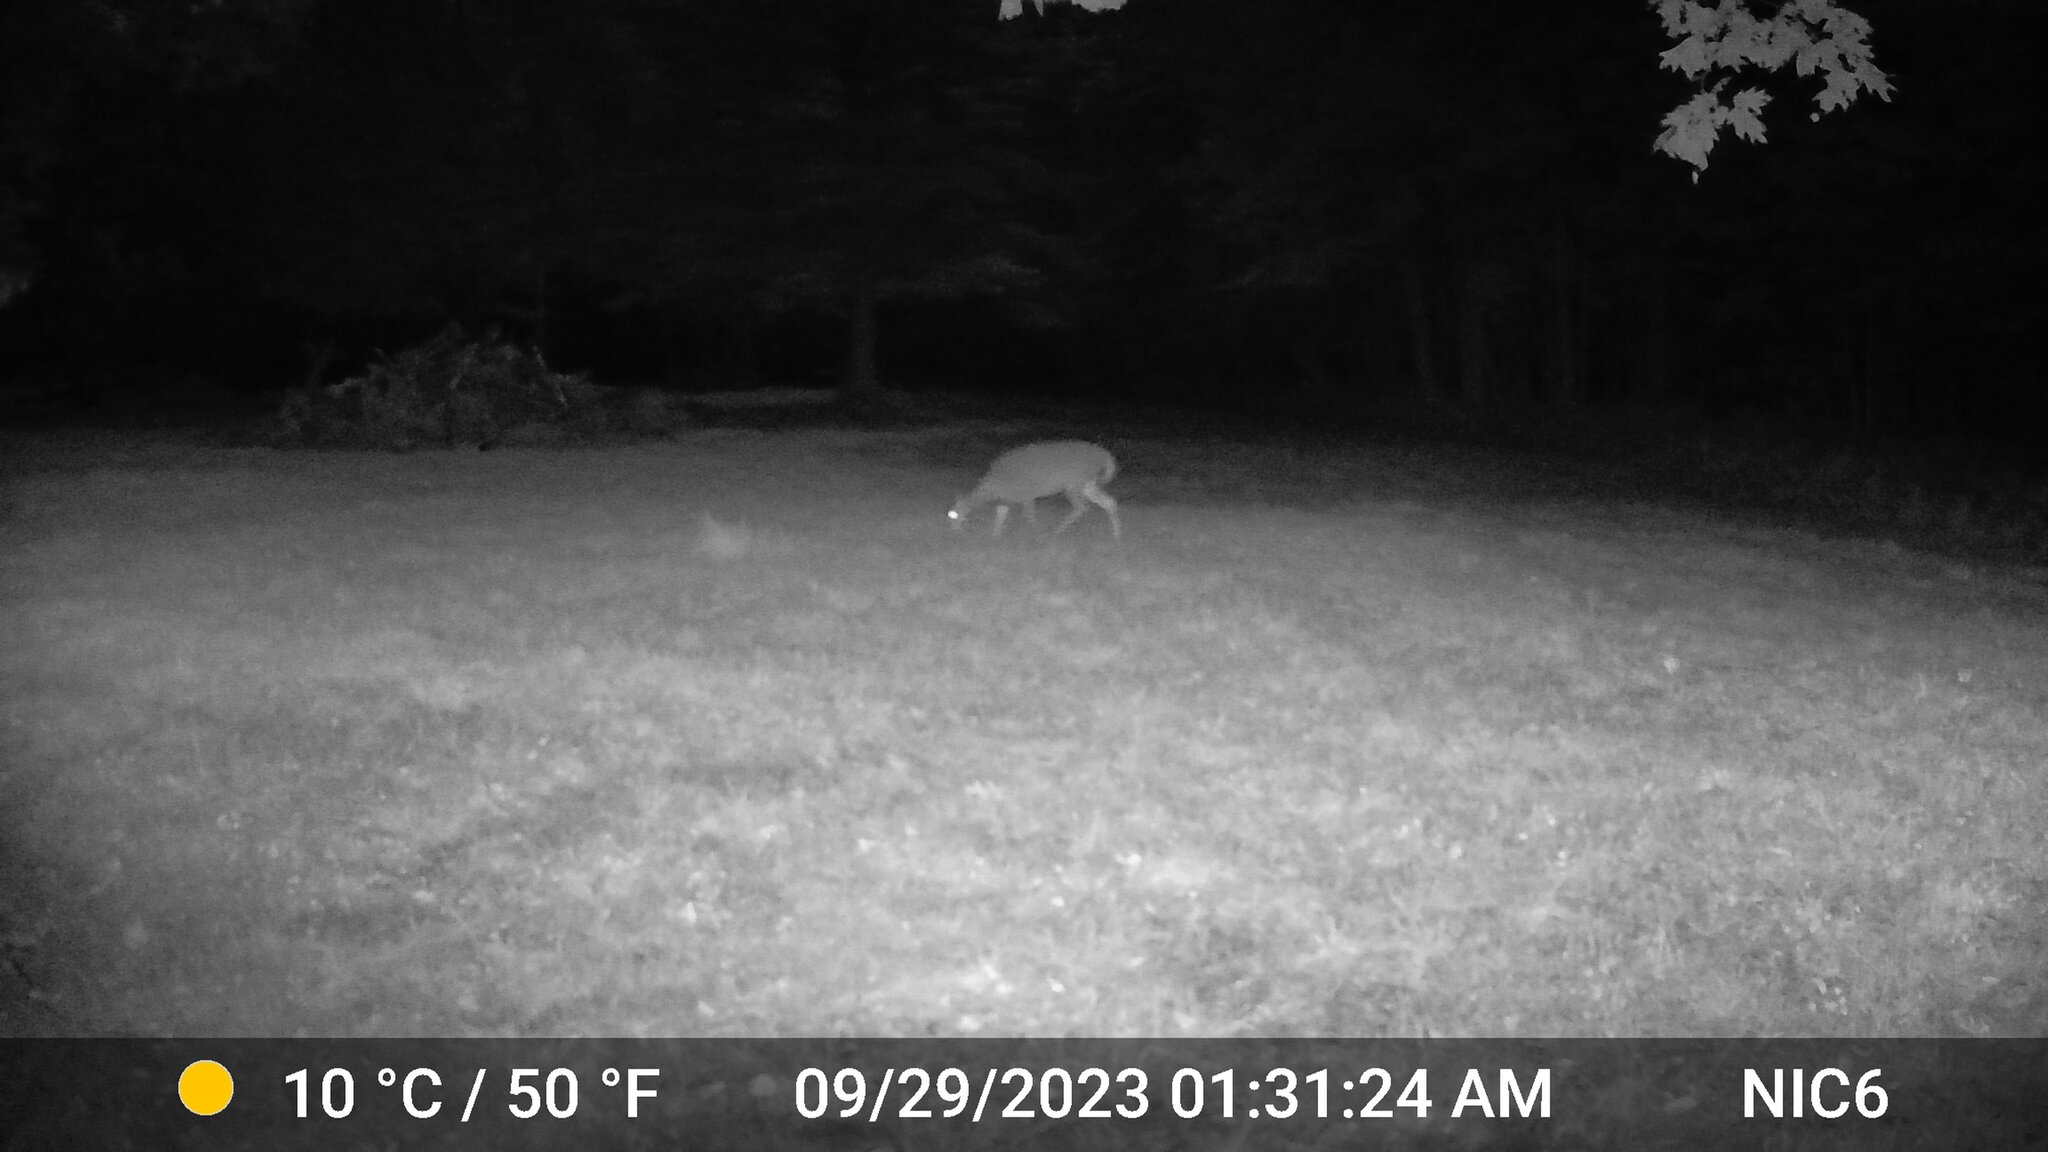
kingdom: Animalia
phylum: Chordata
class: Mammalia
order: Artiodactyla
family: Cervidae
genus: Odocoileus
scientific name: Odocoileus virginianus
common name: White-tailed deer
